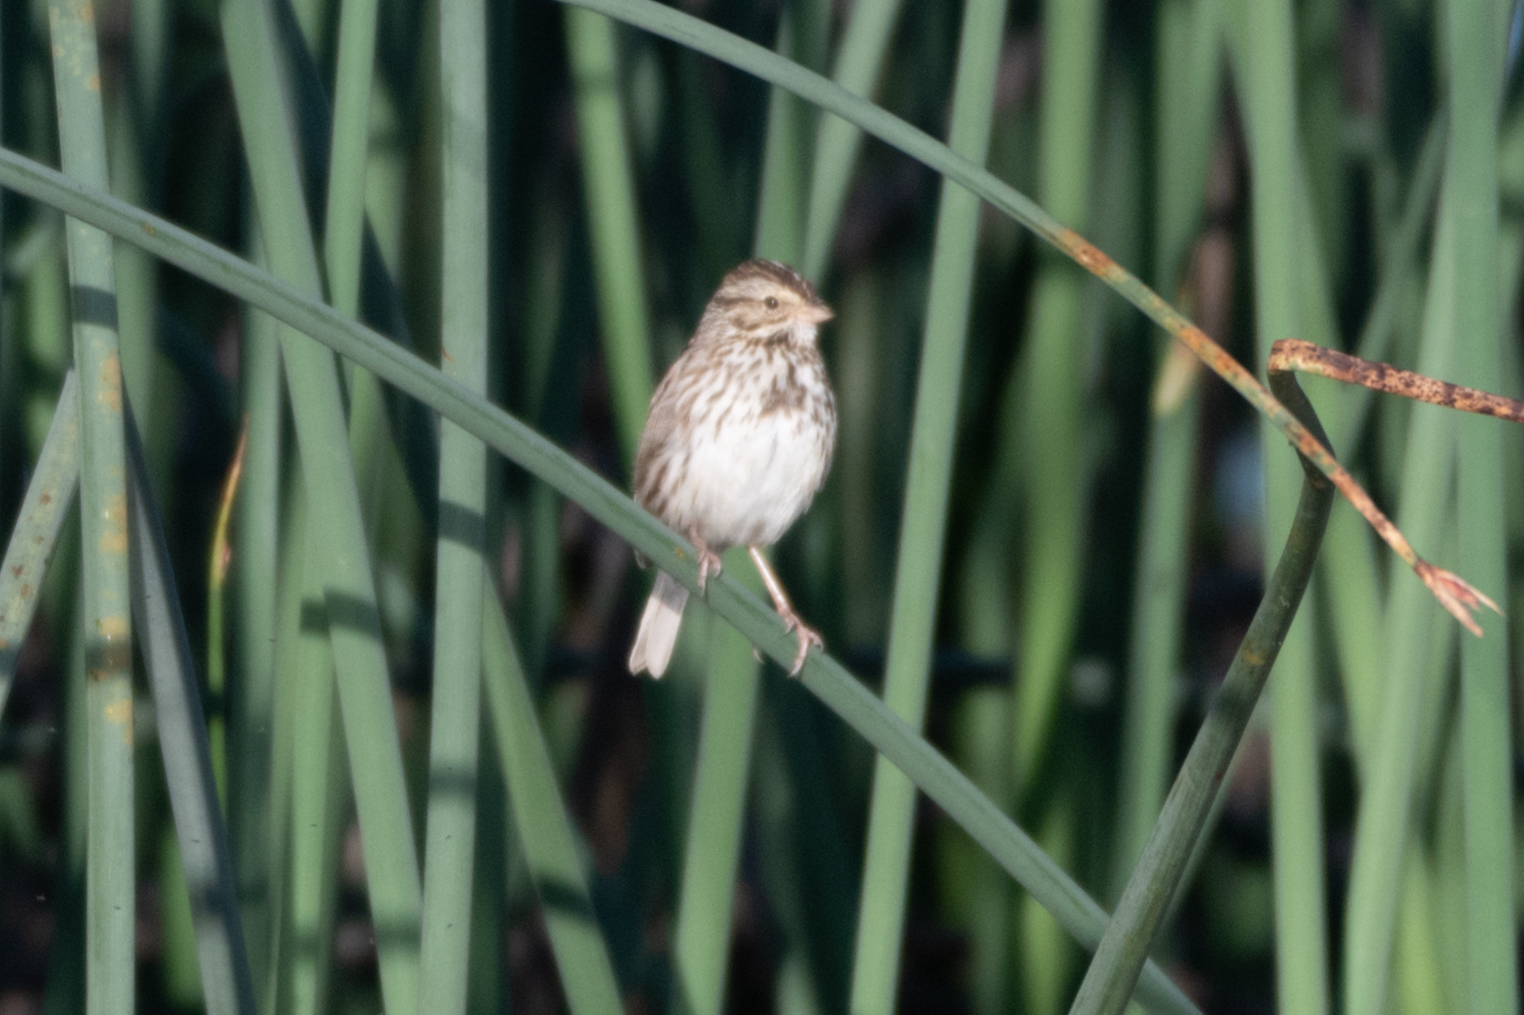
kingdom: Animalia
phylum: Chordata
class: Aves
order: Passeriformes
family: Passerellidae
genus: Passerculus
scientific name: Passerculus sandwichensis
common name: Savannah sparrow
